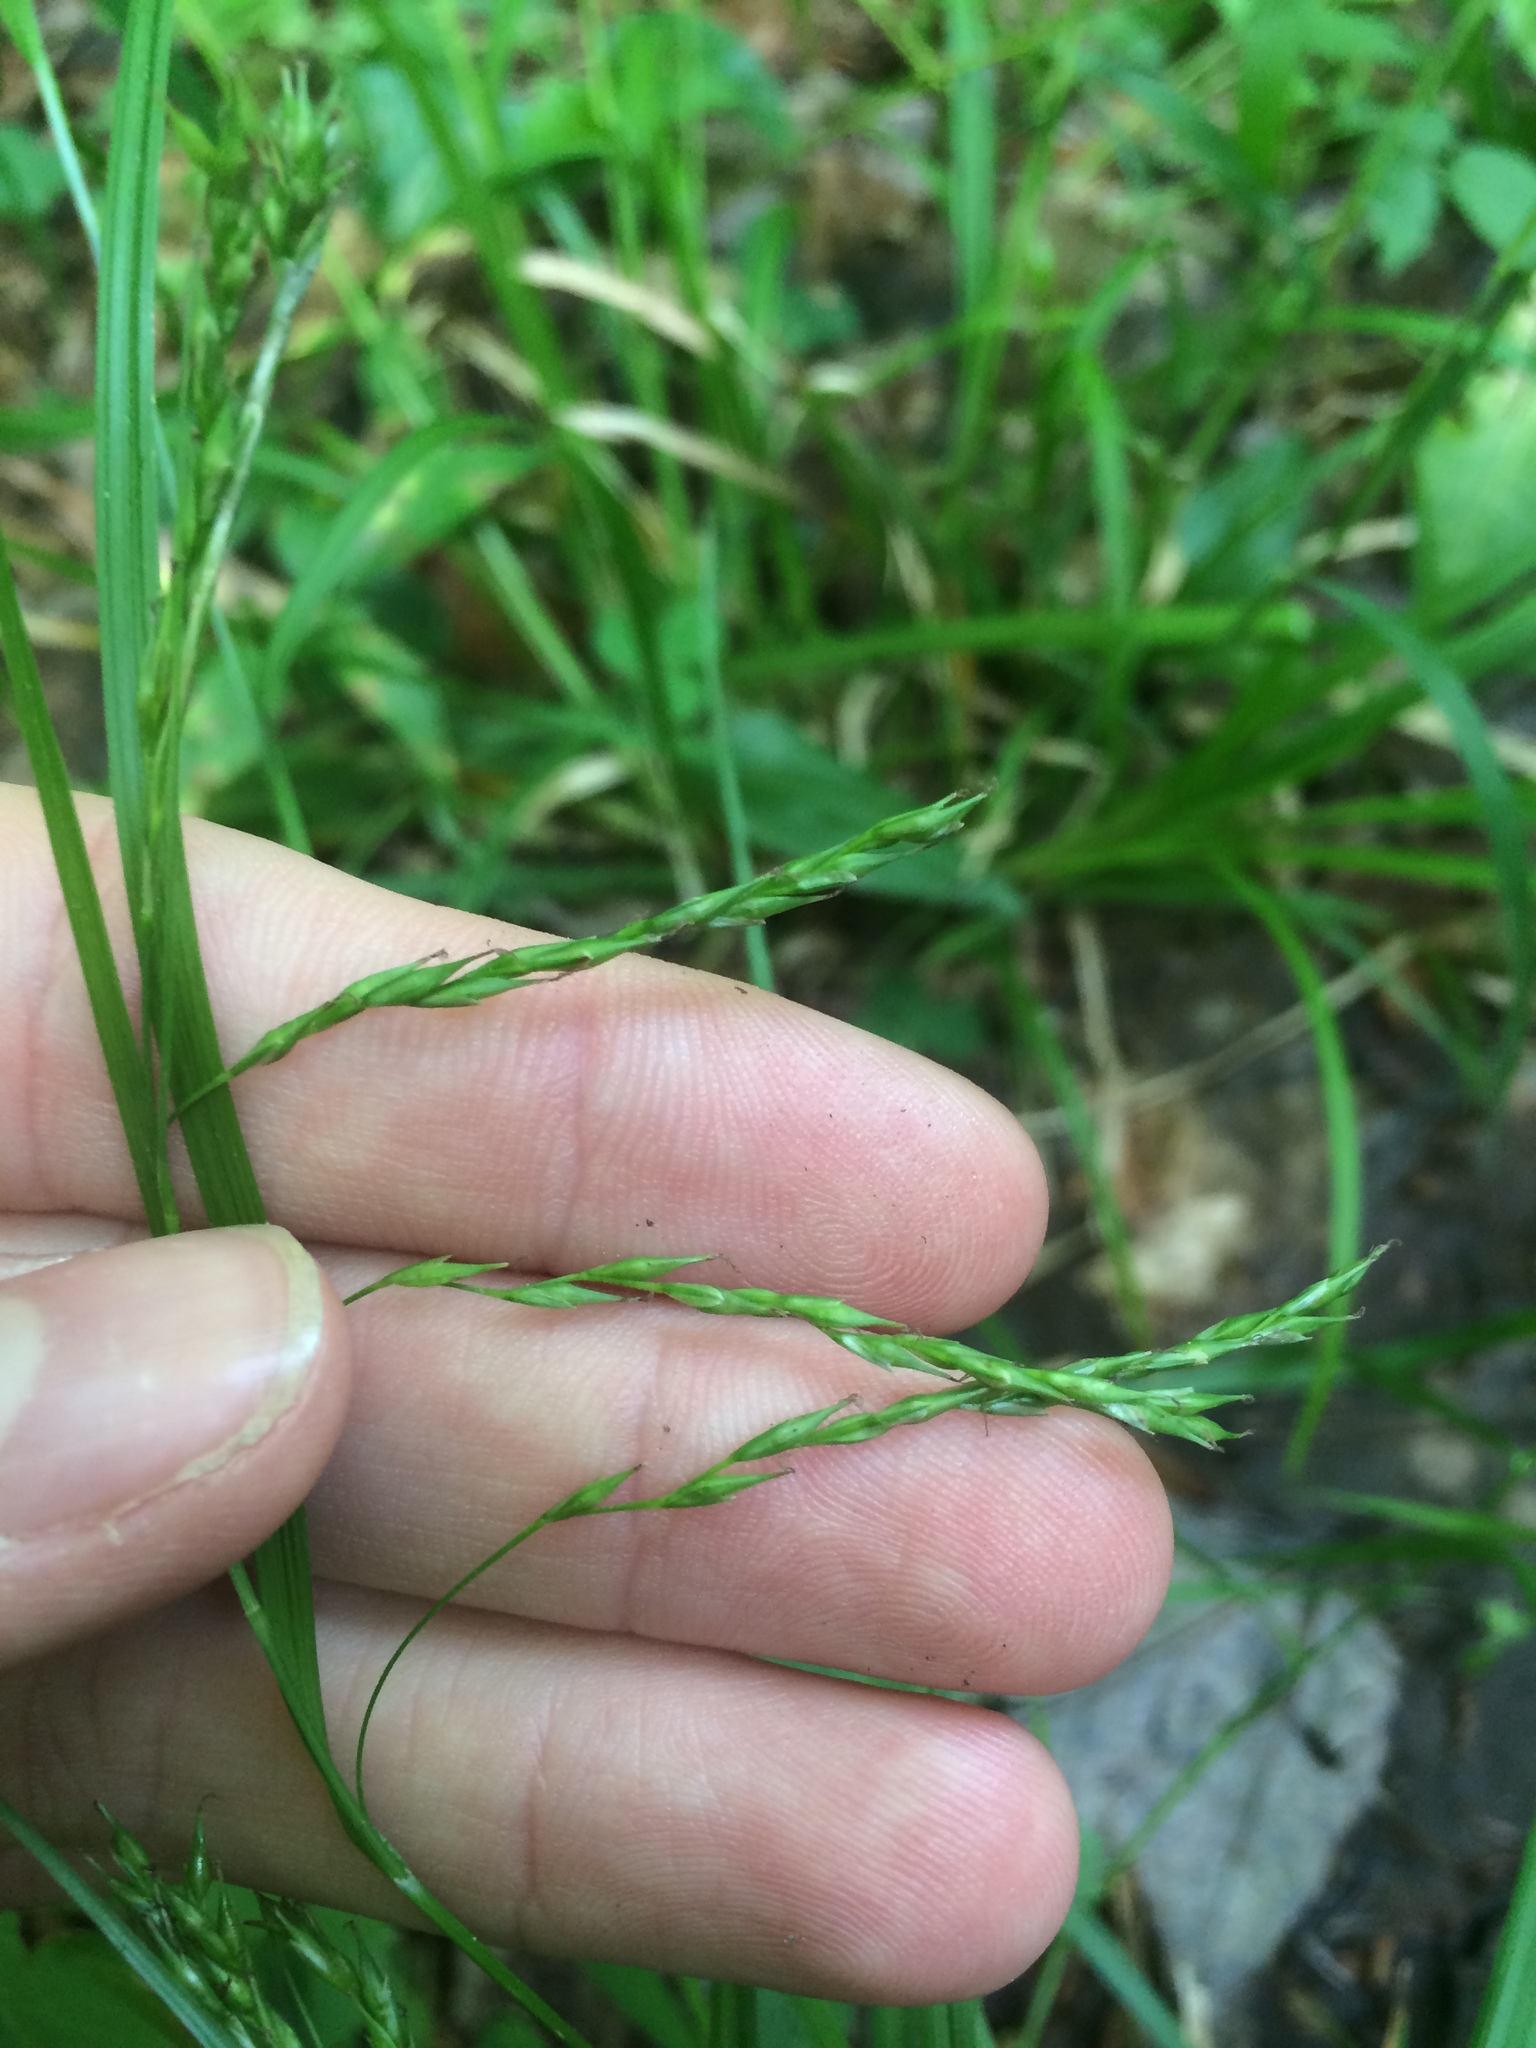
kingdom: Plantae
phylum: Tracheophyta
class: Liliopsida
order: Poales
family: Cyperaceae
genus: Carex
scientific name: Carex debilis
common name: White-edge sedge
